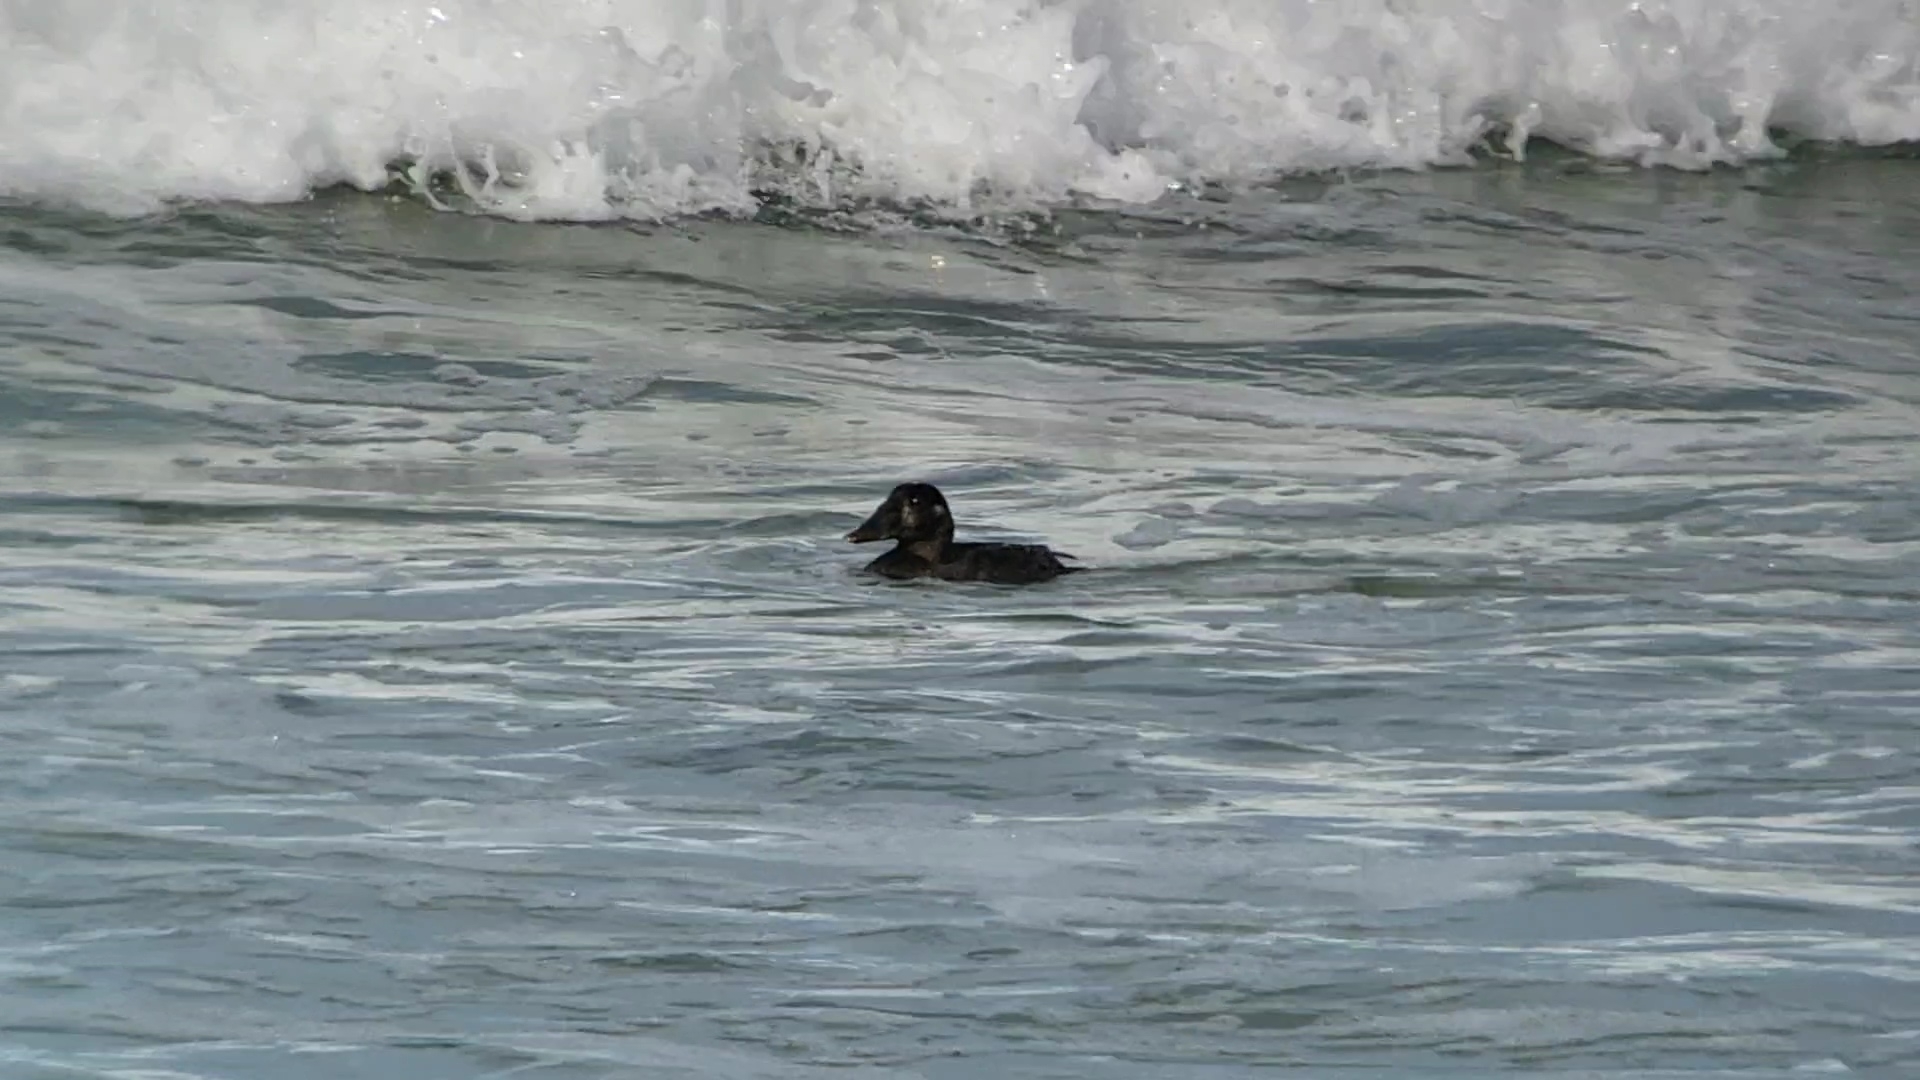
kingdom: Animalia
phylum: Chordata
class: Aves
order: Anseriformes
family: Anatidae
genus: Melanitta
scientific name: Melanitta perspicillata
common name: Surf scoter
